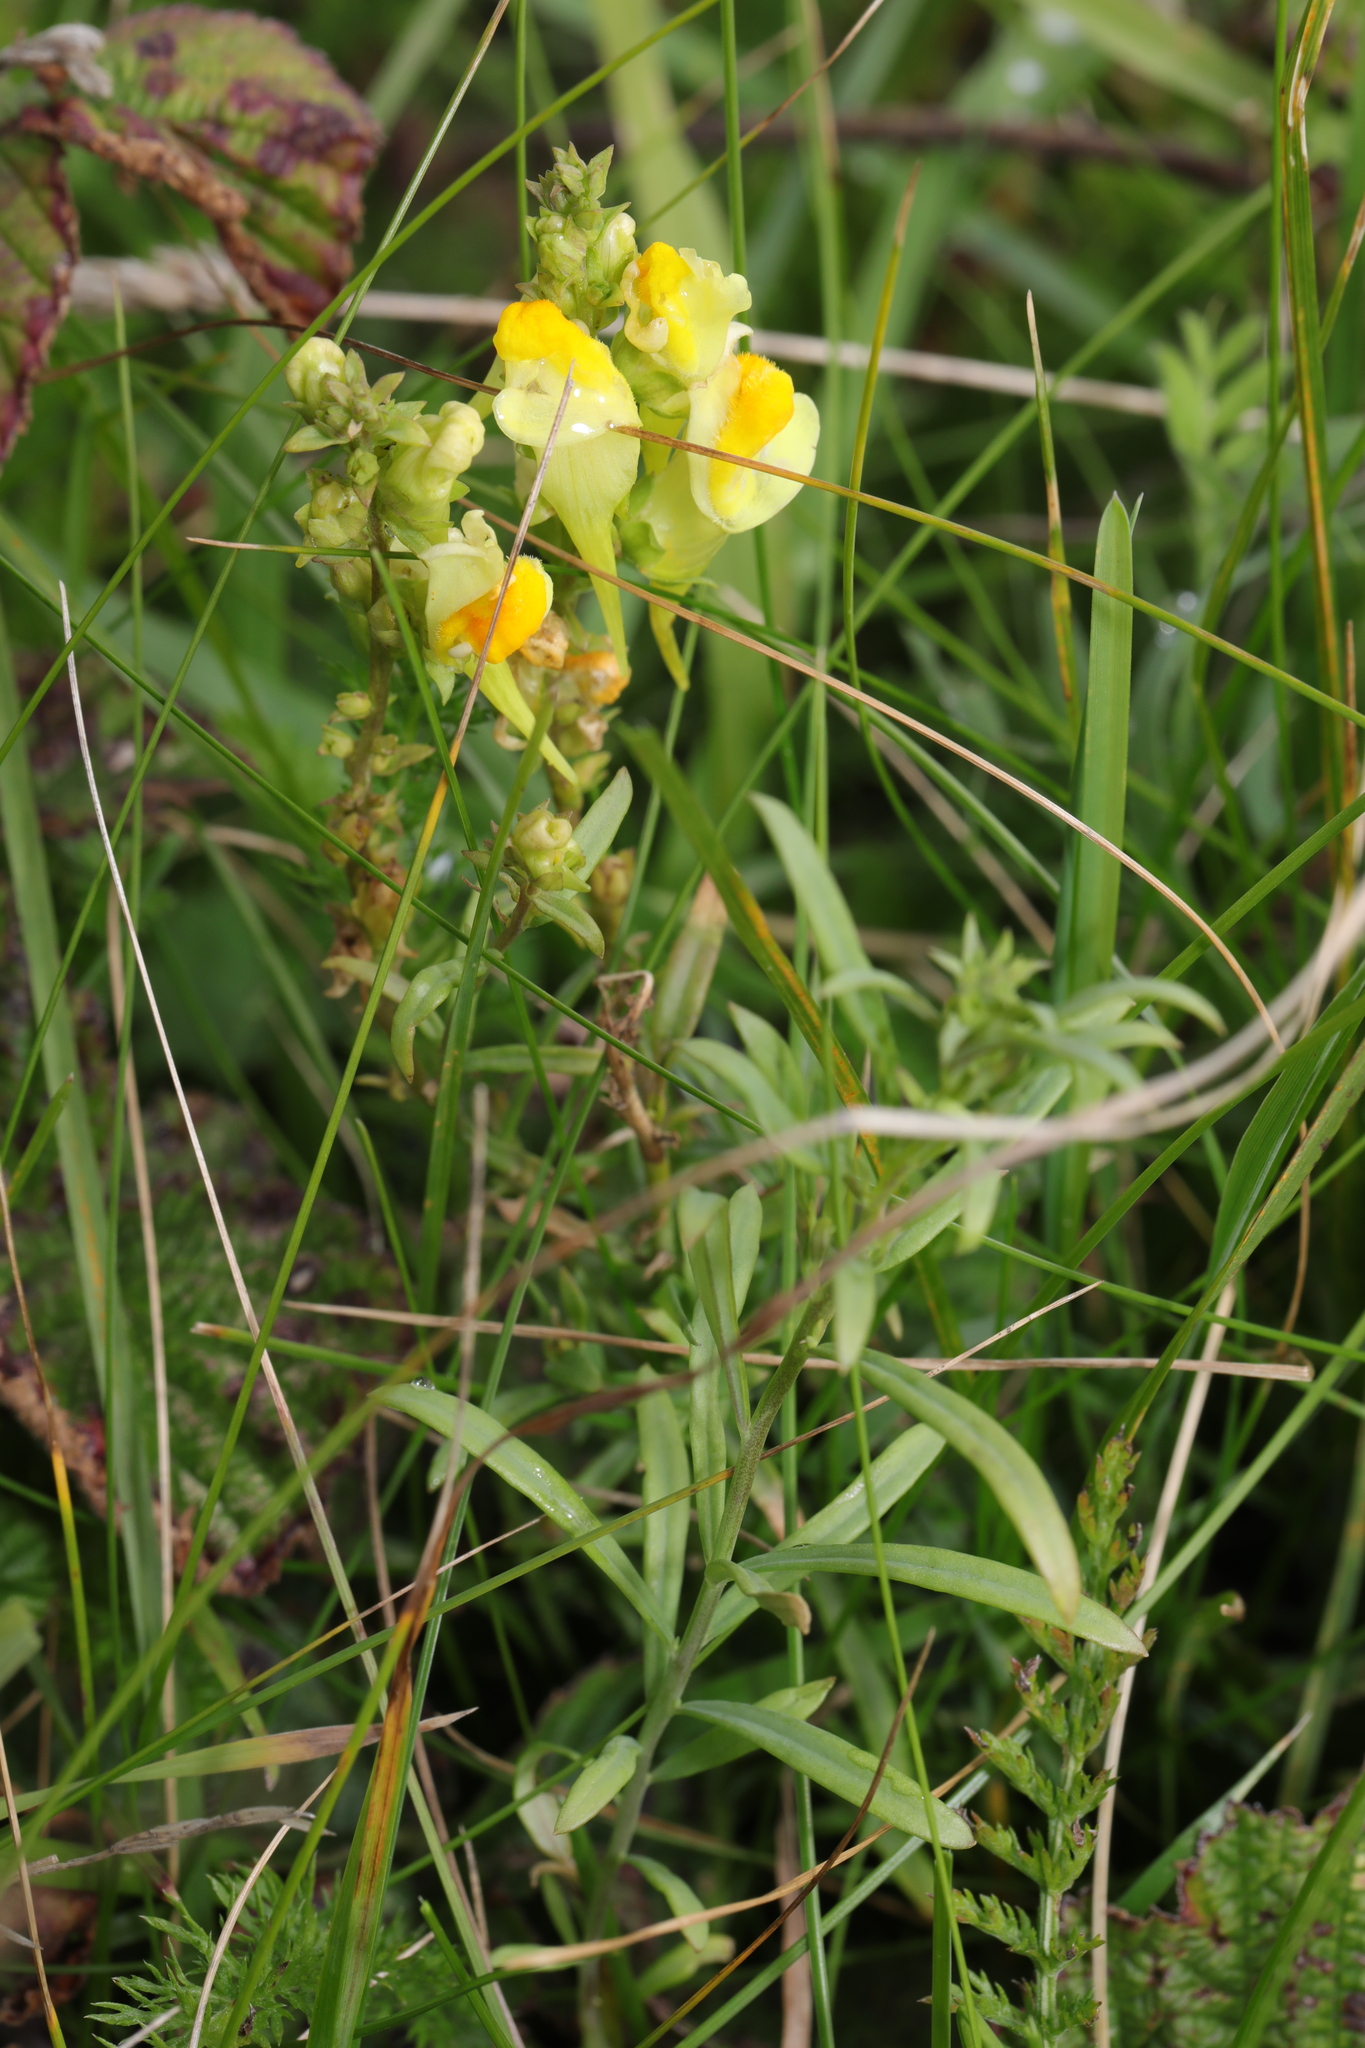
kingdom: Plantae
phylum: Tracheophyta
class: Magnoliopsida
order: Lamiales
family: Plantaginaceae
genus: Linaria
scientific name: Linaria vulgaris
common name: Butter and eggs
